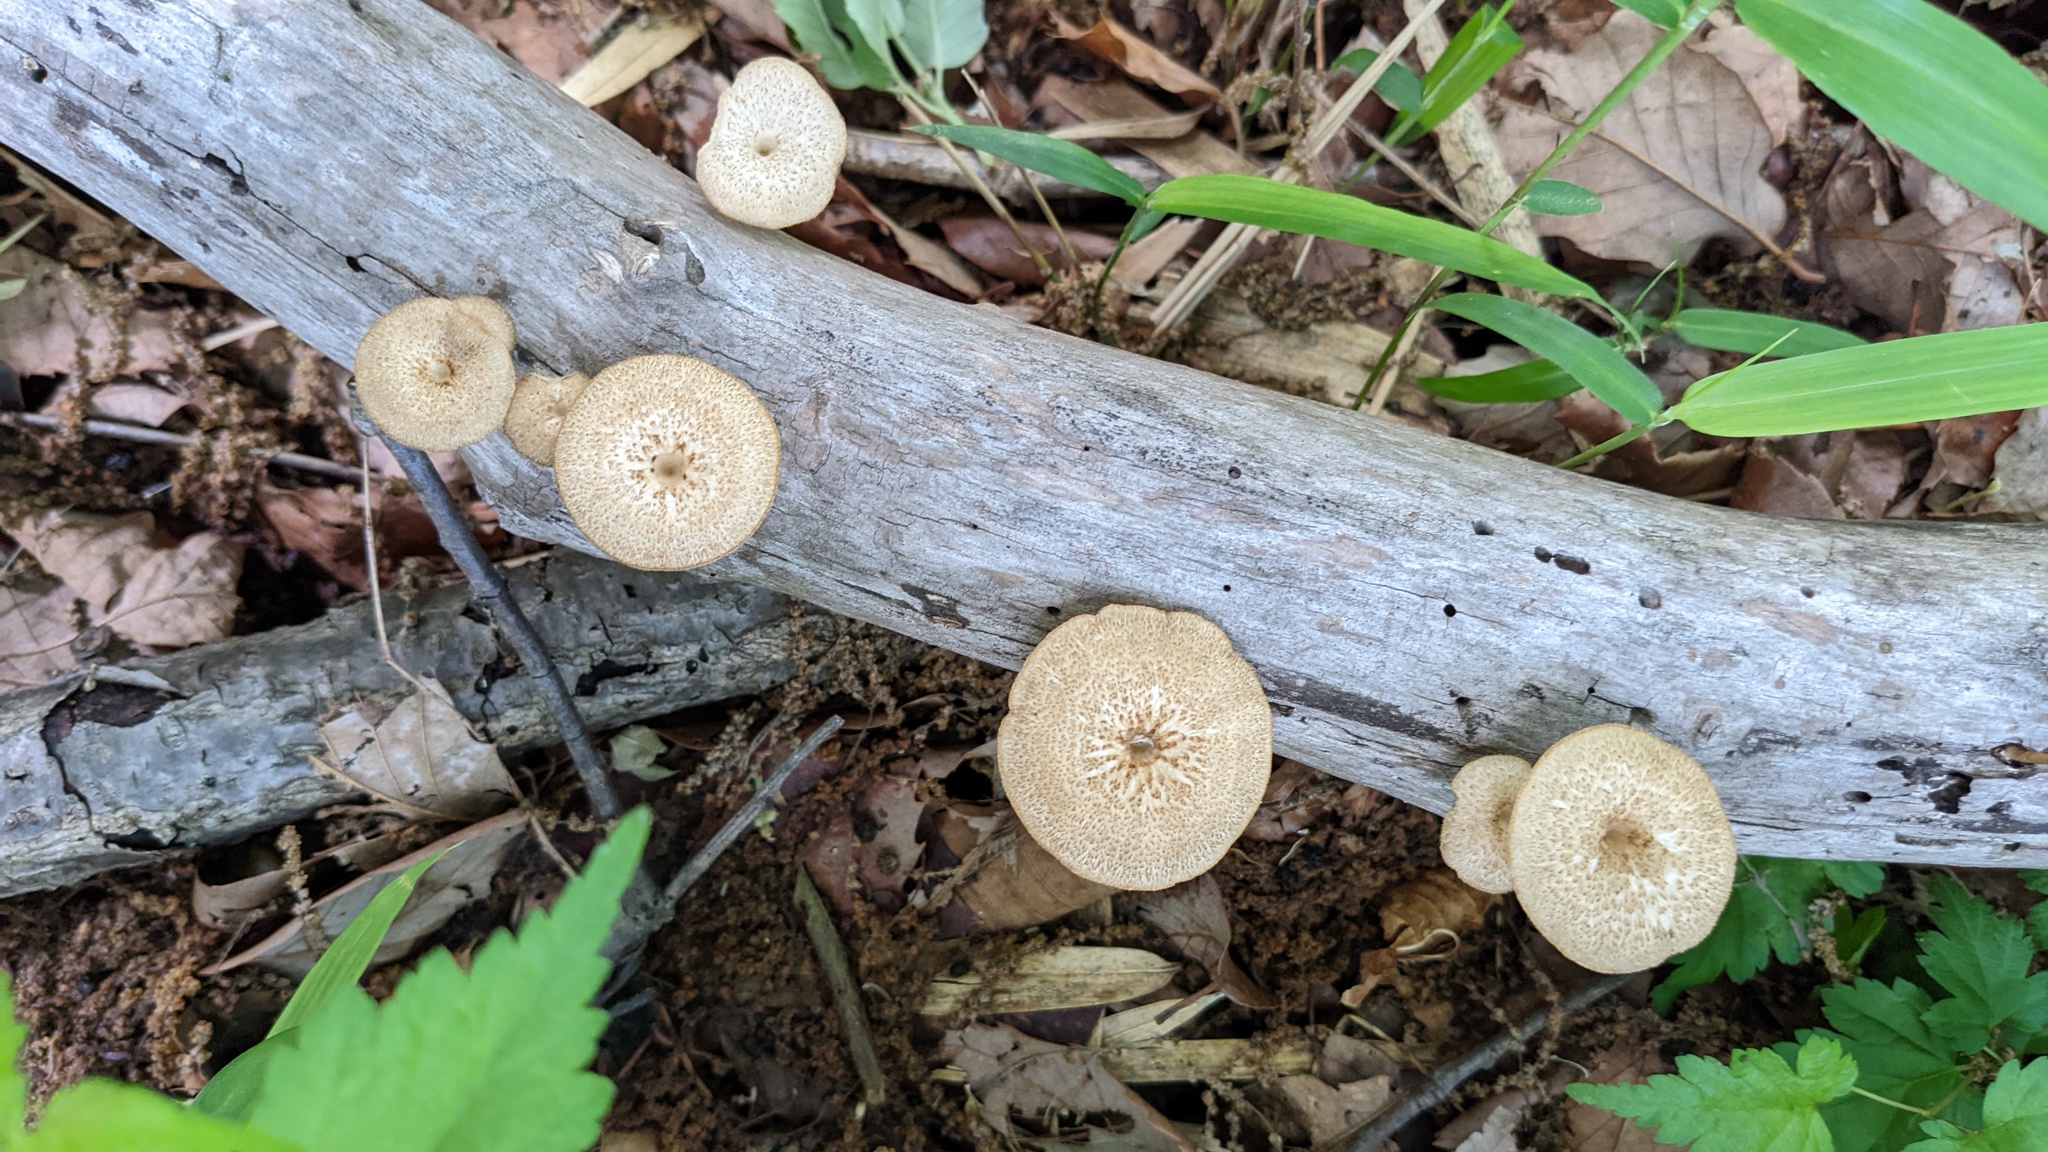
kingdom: Fungi
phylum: Basidiomycota
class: Agaricomycetes
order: Polyporales
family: Polyporaceae
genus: Lentinus
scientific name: Lentinus arcularius
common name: Spring polypore
